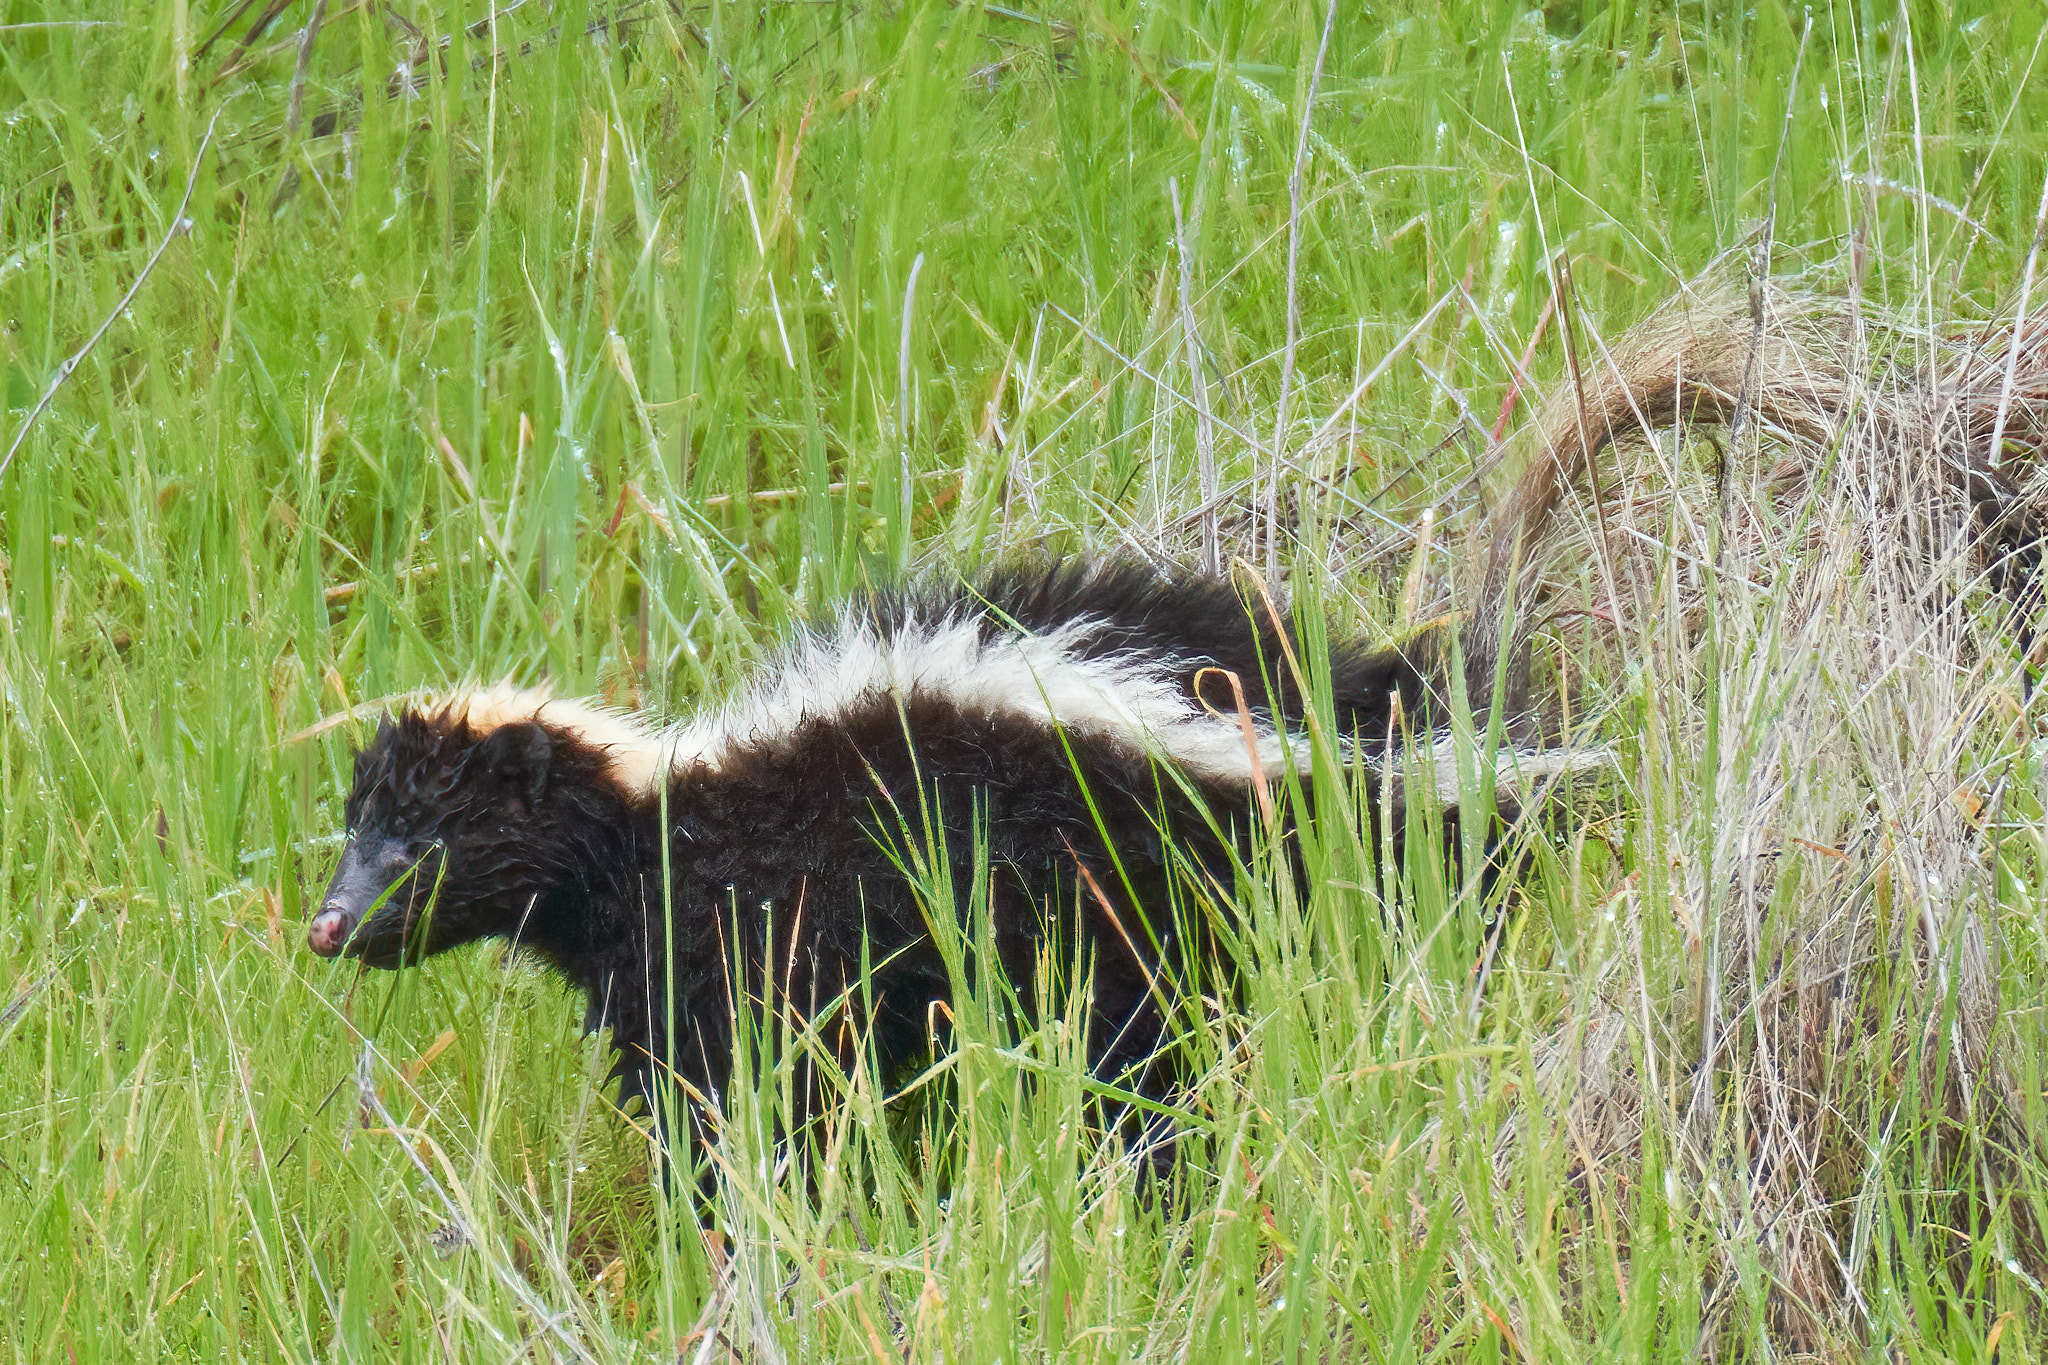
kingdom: Animalia
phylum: Chordata
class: Mammalia
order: Carnivora
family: Mephitidae
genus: Mephitis
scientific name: Mephitis mephitis
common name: Striped skunk
